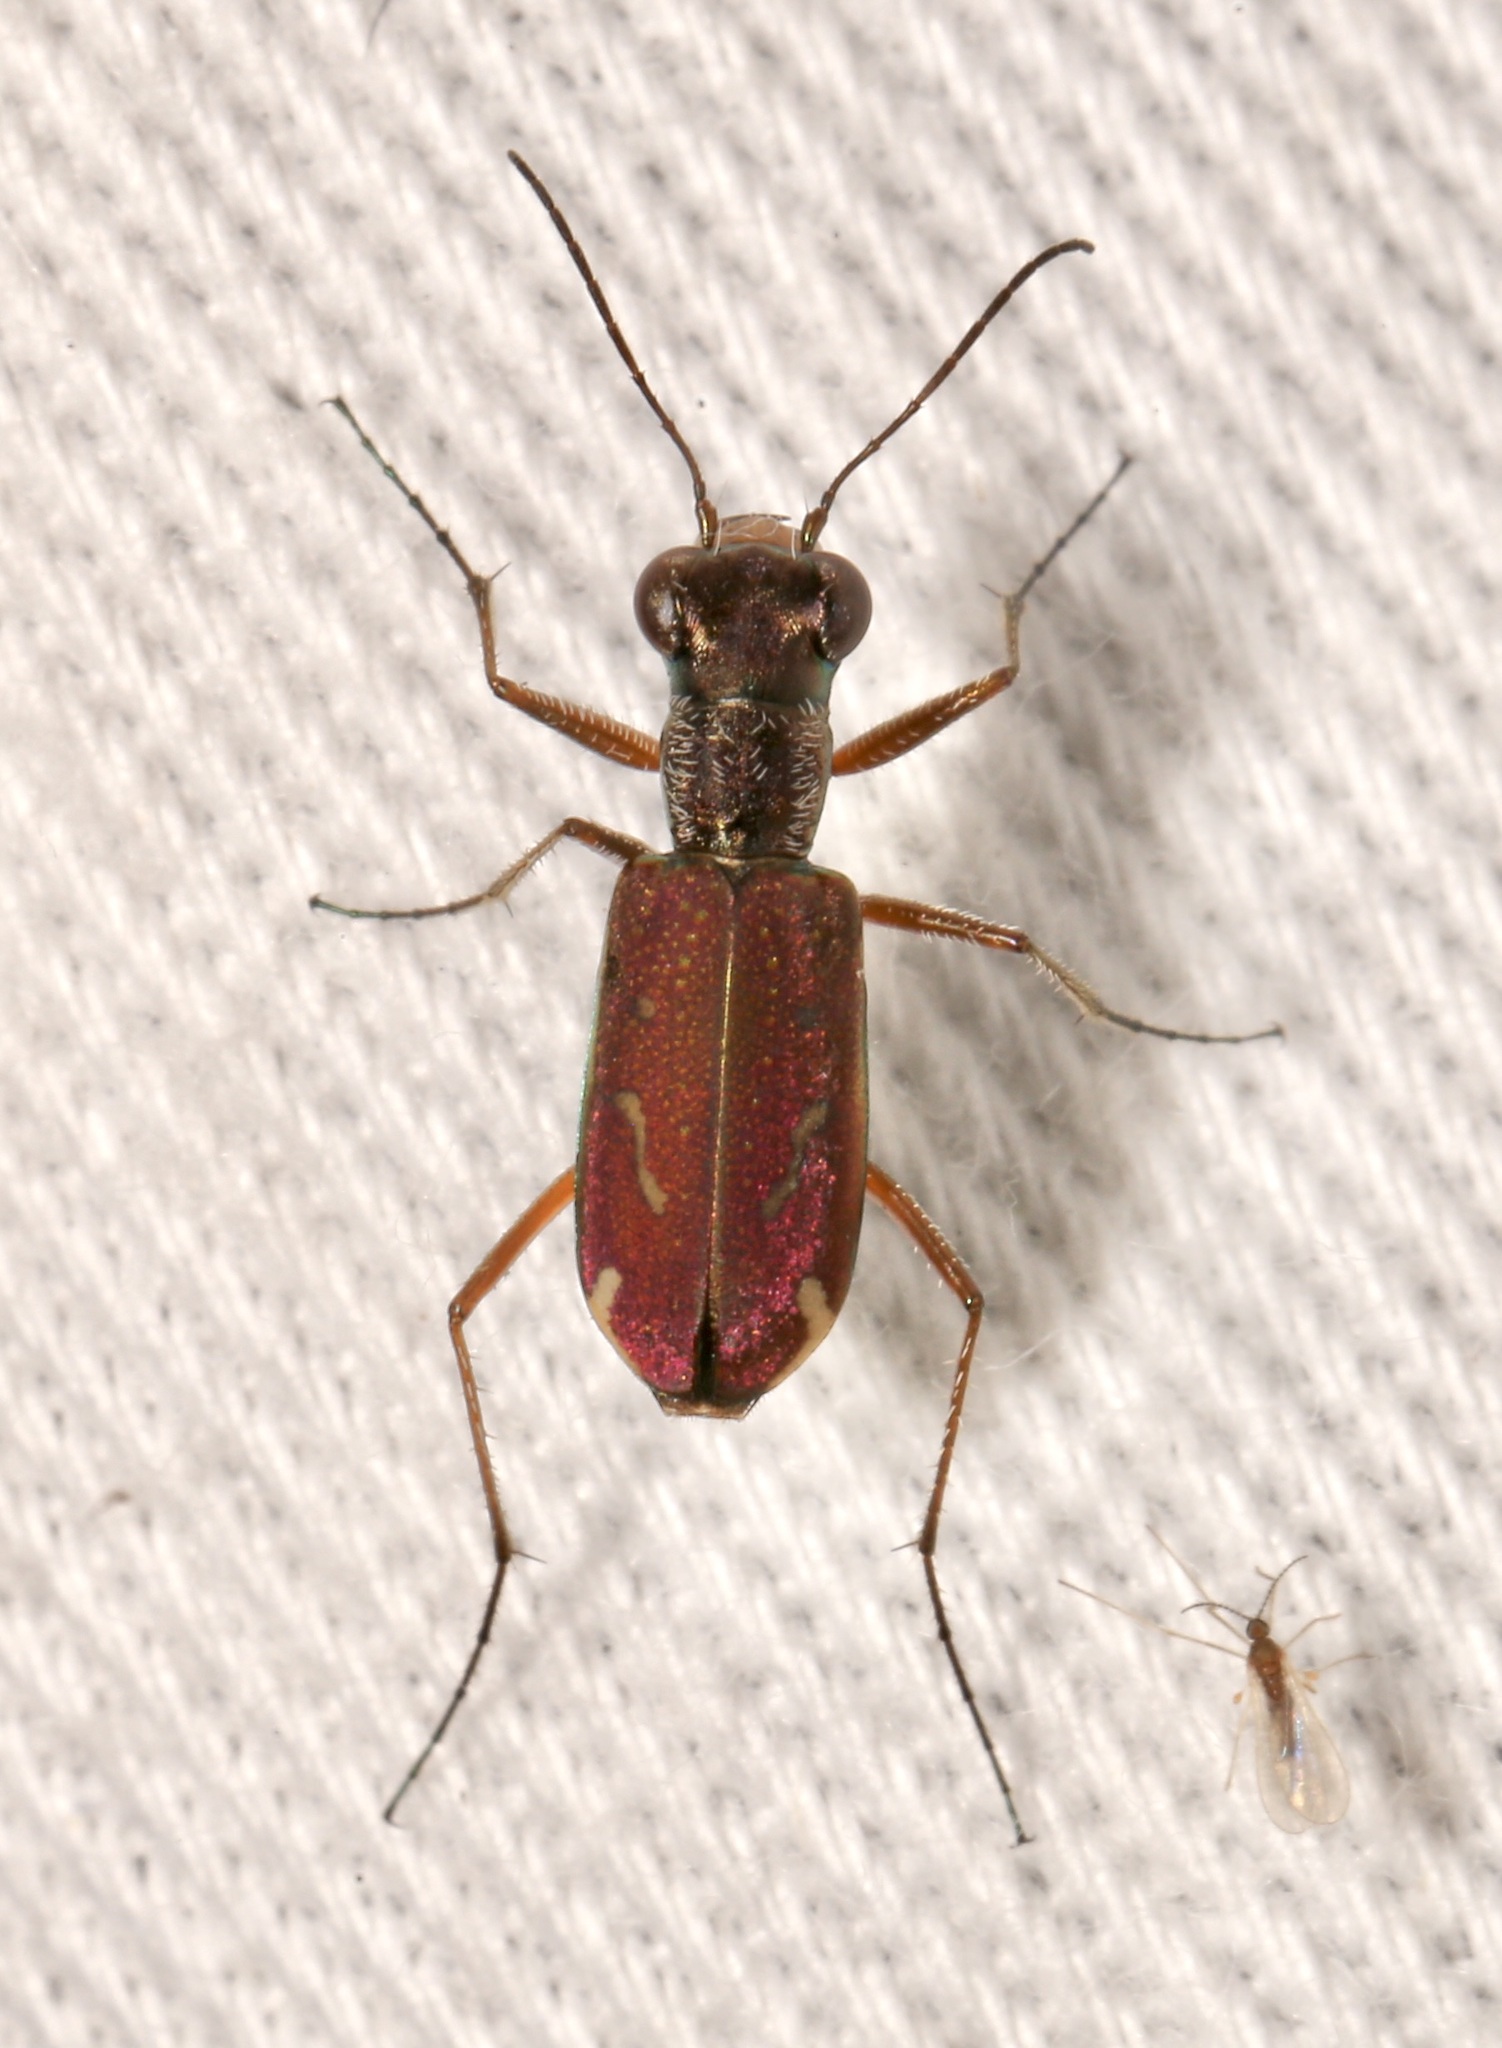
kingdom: Animalia
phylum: Arthropoda
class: Insecta
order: Coleoptera
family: Carabidae
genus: Brasiella
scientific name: Brasiella wickhami
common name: Sonoran tiger beetle
